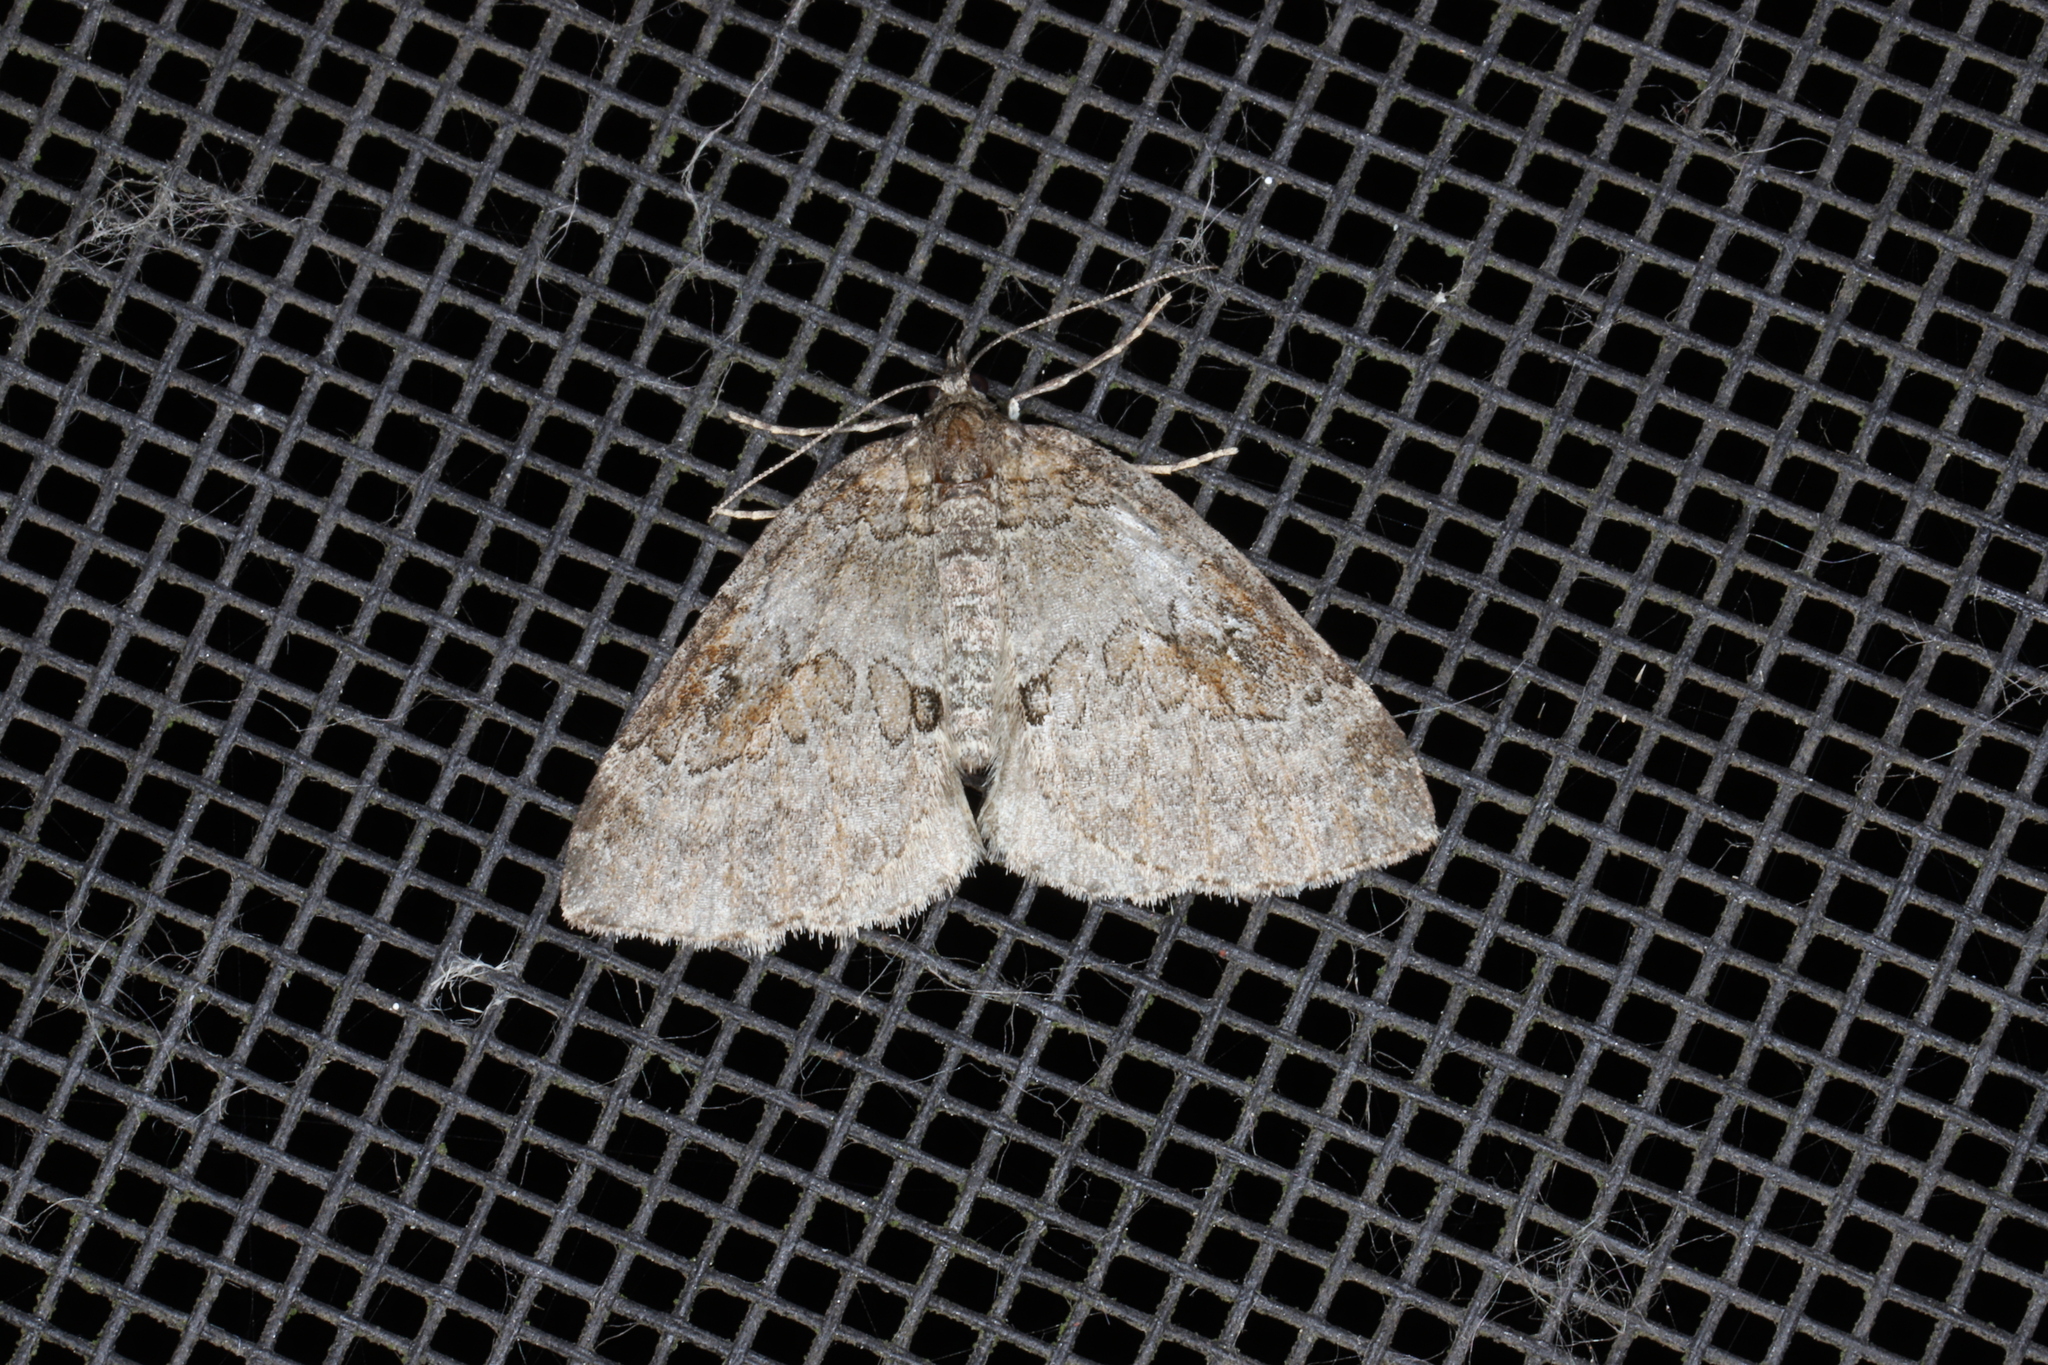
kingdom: Animalia
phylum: Arthropoda
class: Insecta
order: Lepidoptera
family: Geometridae
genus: Plemyria
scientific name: Plemyria georgii
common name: George's carpet moth
